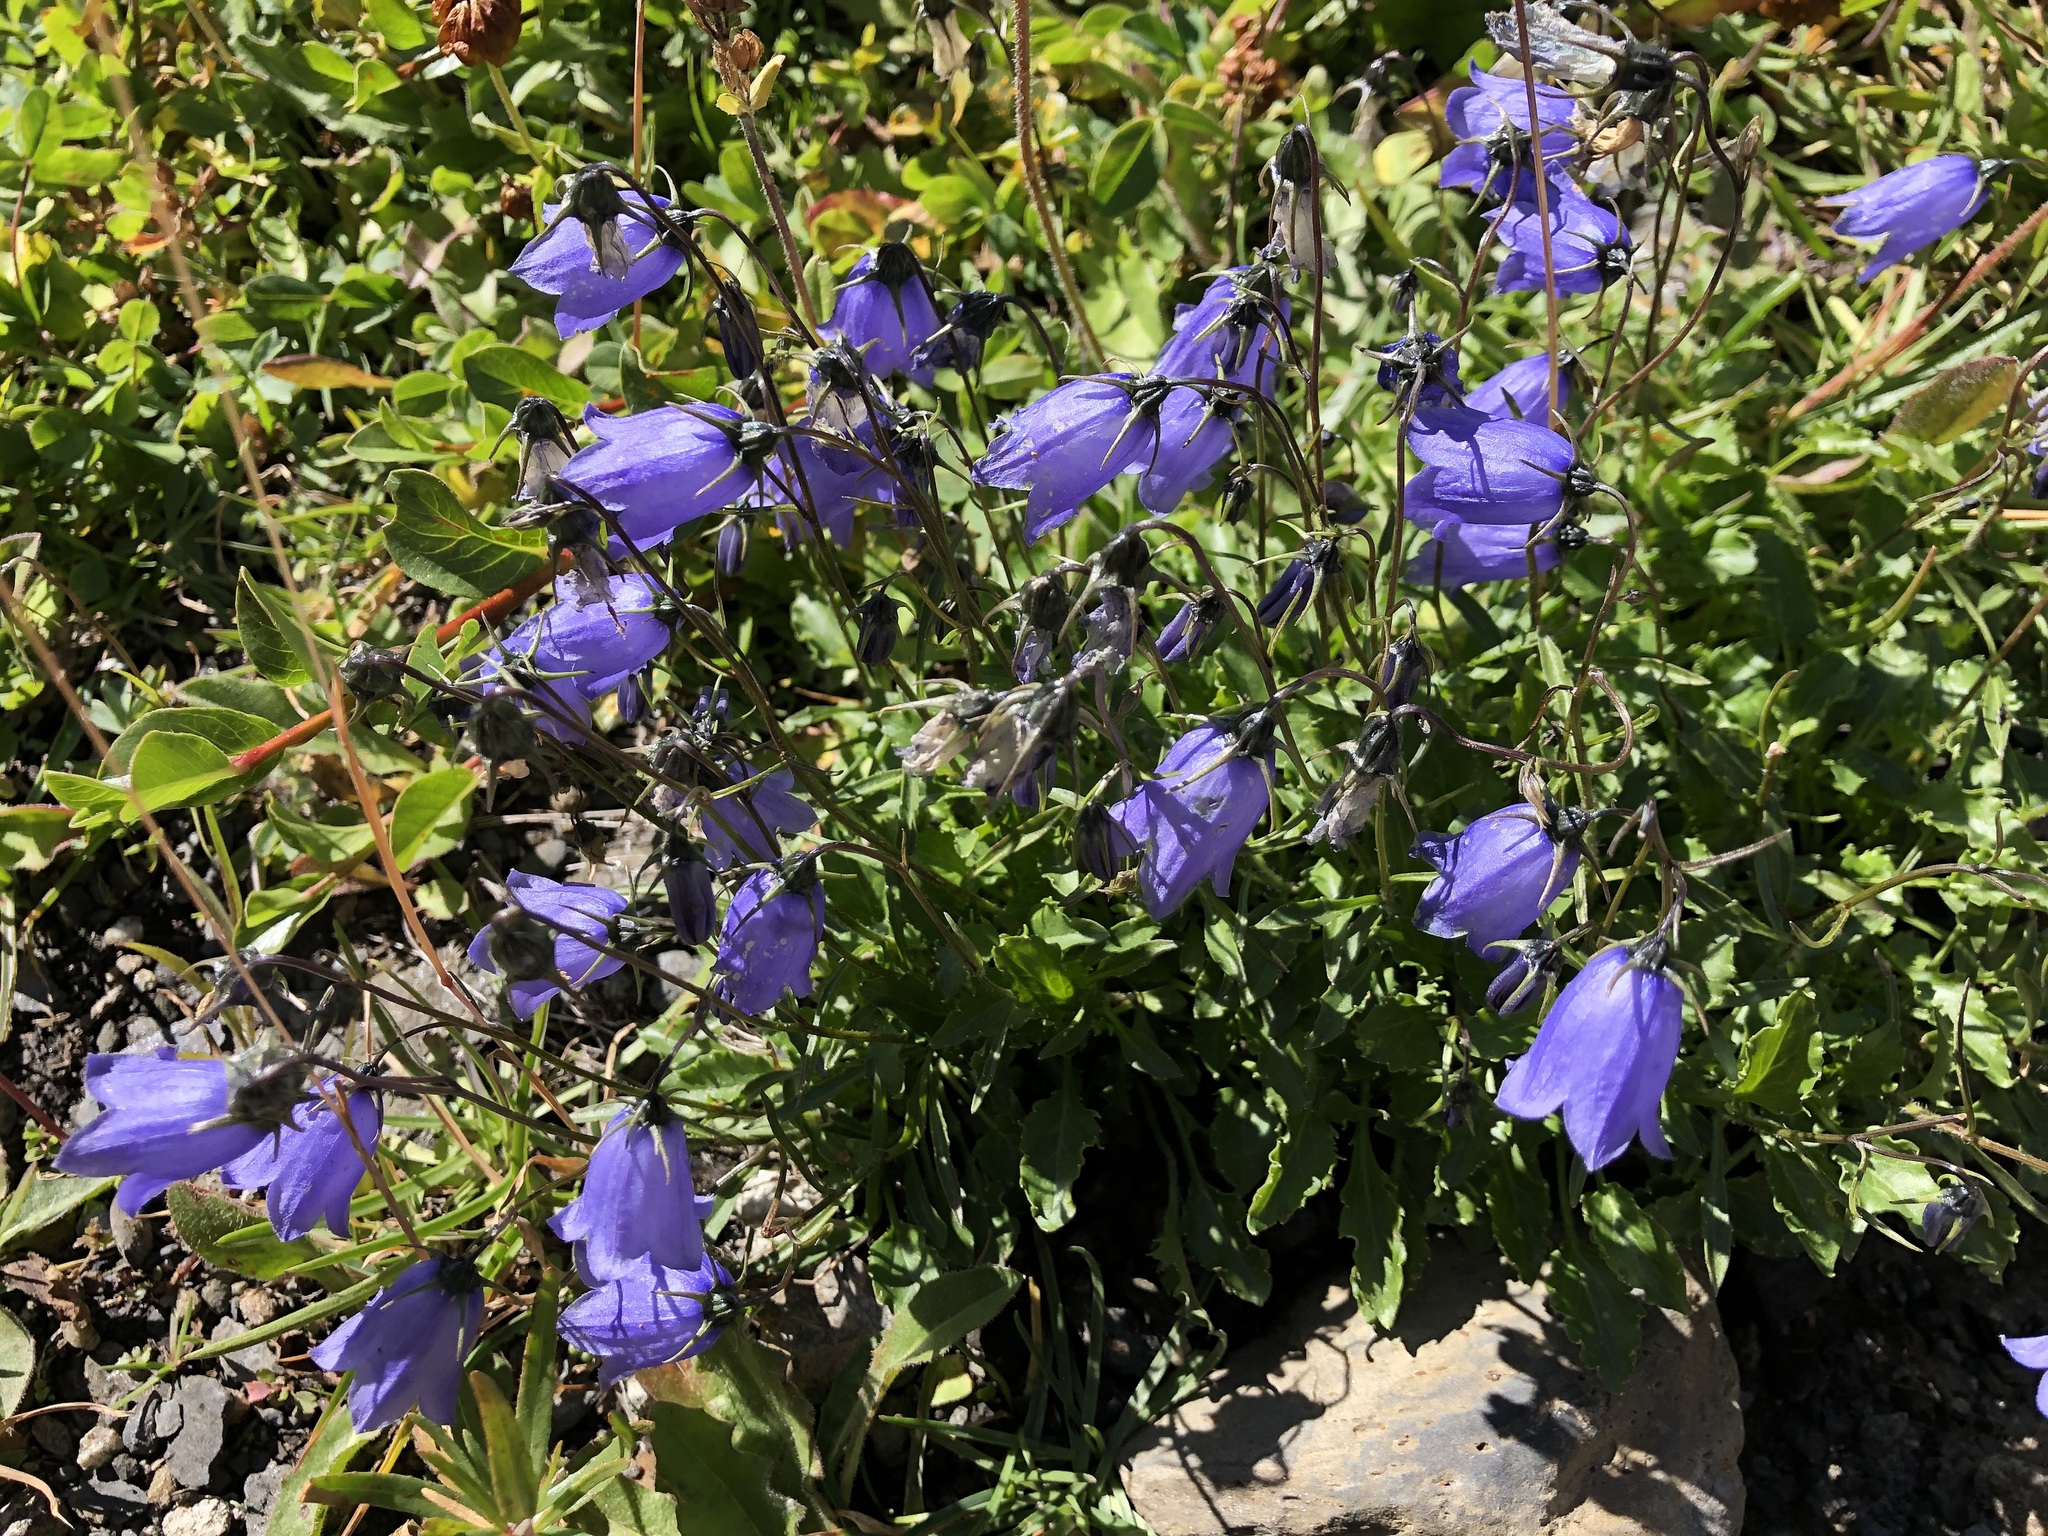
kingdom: Plantae
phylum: Tracheophyta
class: Magnoliopsida
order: Asterales
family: Campanulaceae
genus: Campanula
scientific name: Campanula cochleariifolia
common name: Fairies'-thimbles
